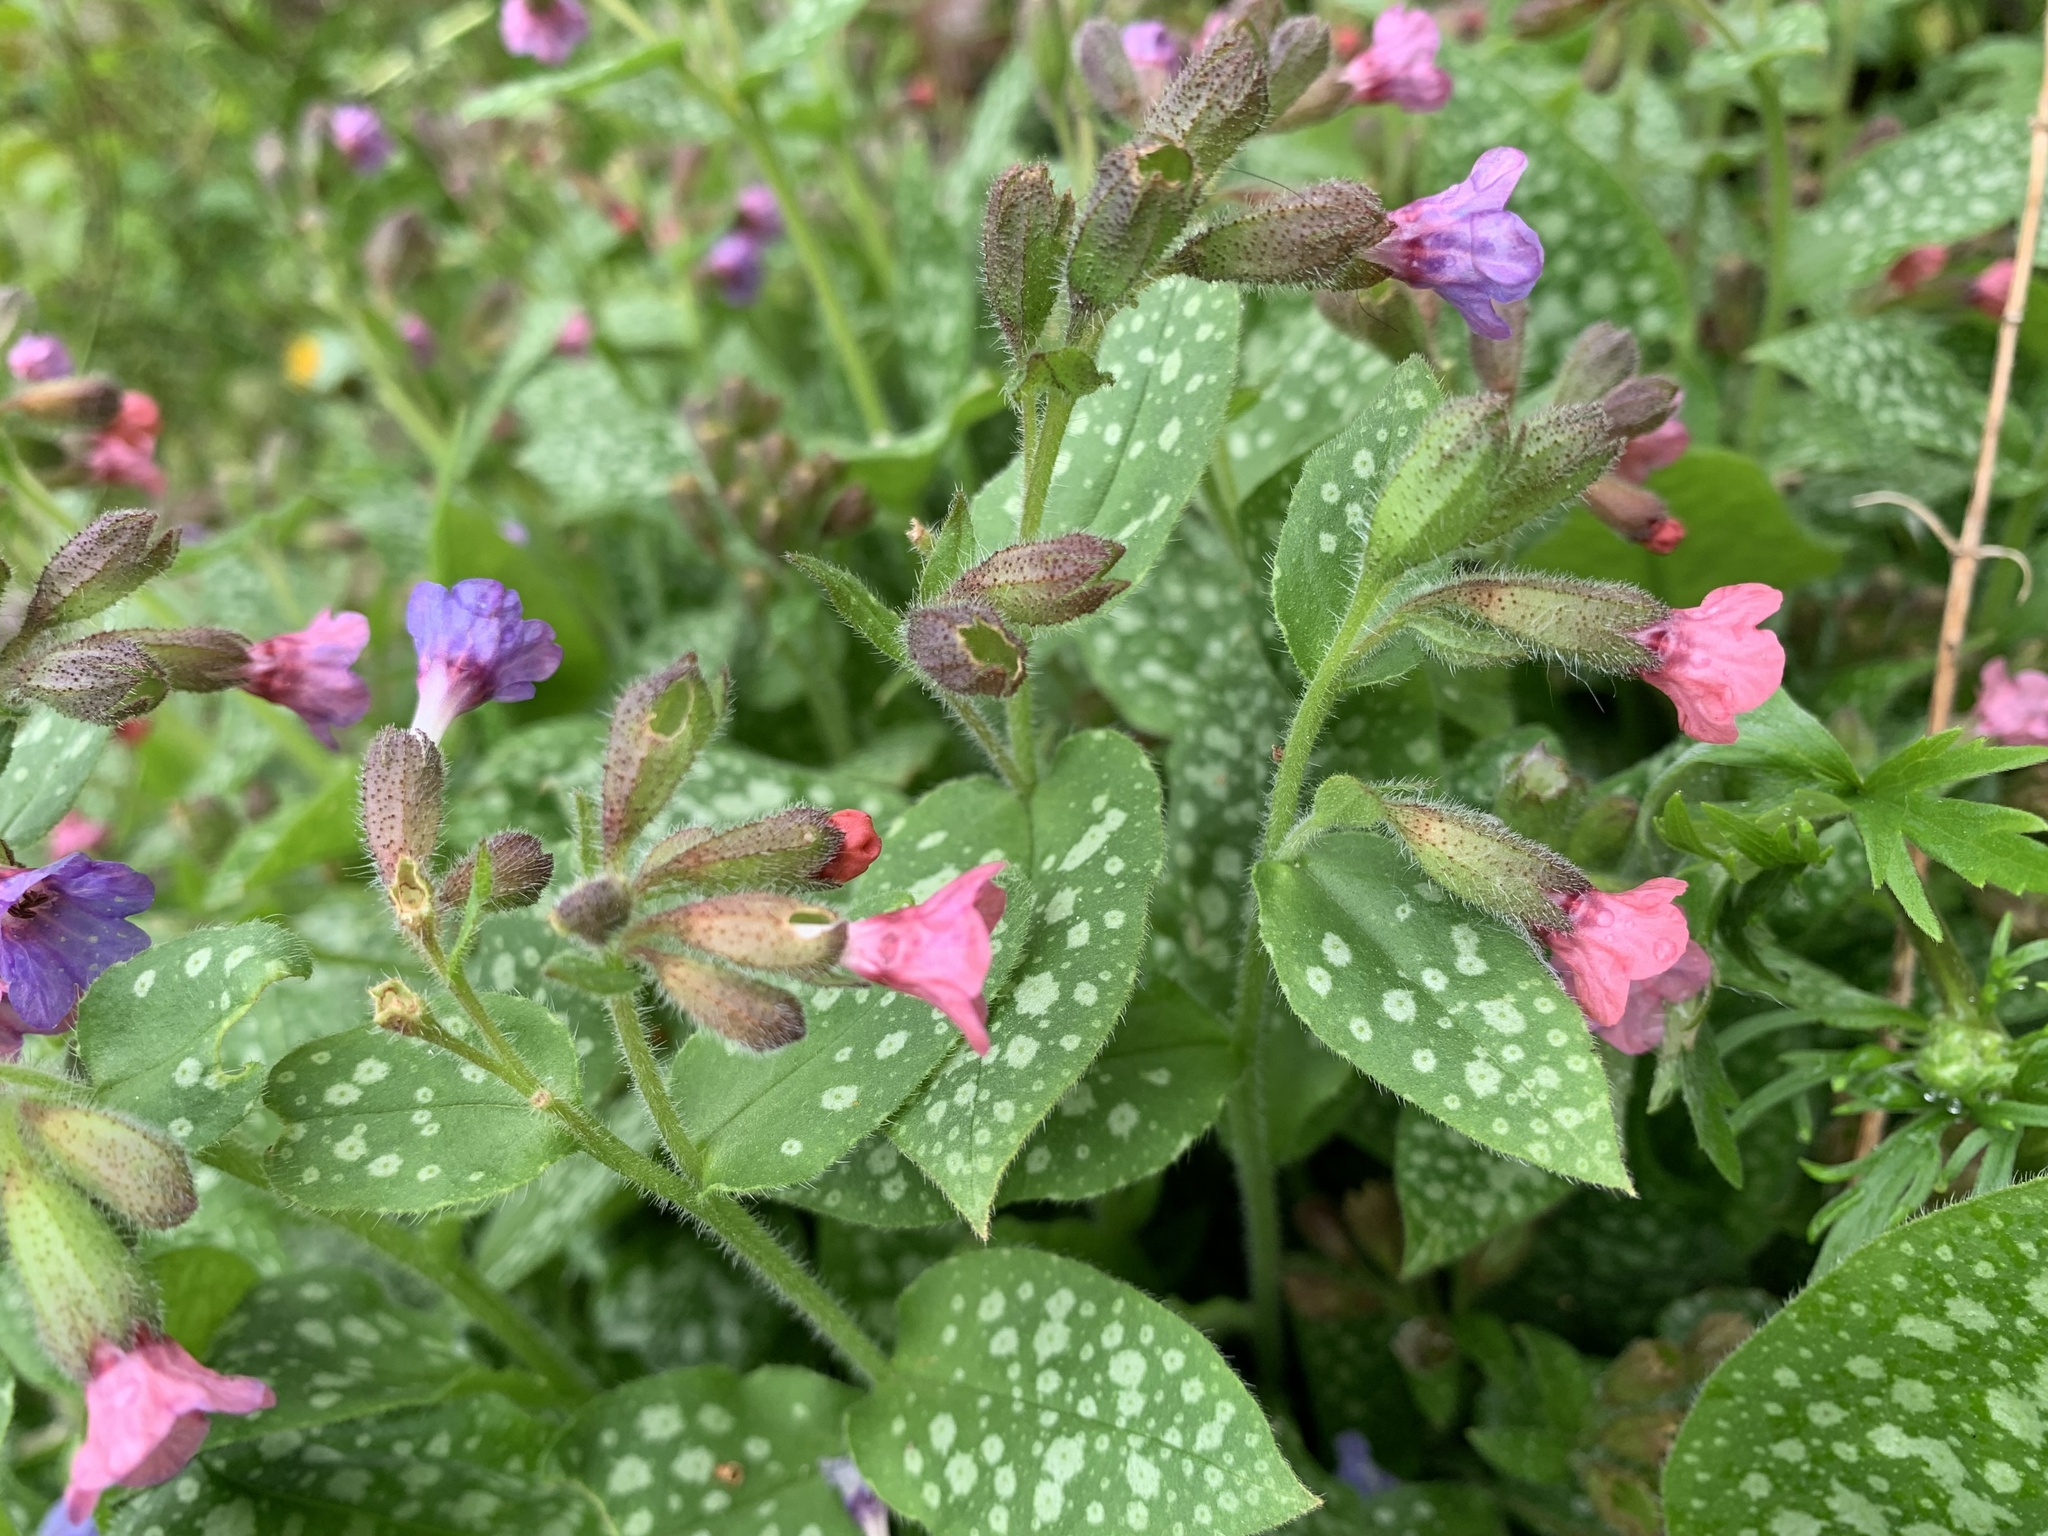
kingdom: Plantae
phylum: Tracheophyta
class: Magnoliopsida
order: Boraginales
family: Boraginaceae
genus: Pulmonaria
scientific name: Pulmonaria officinalis
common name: Lungwort
